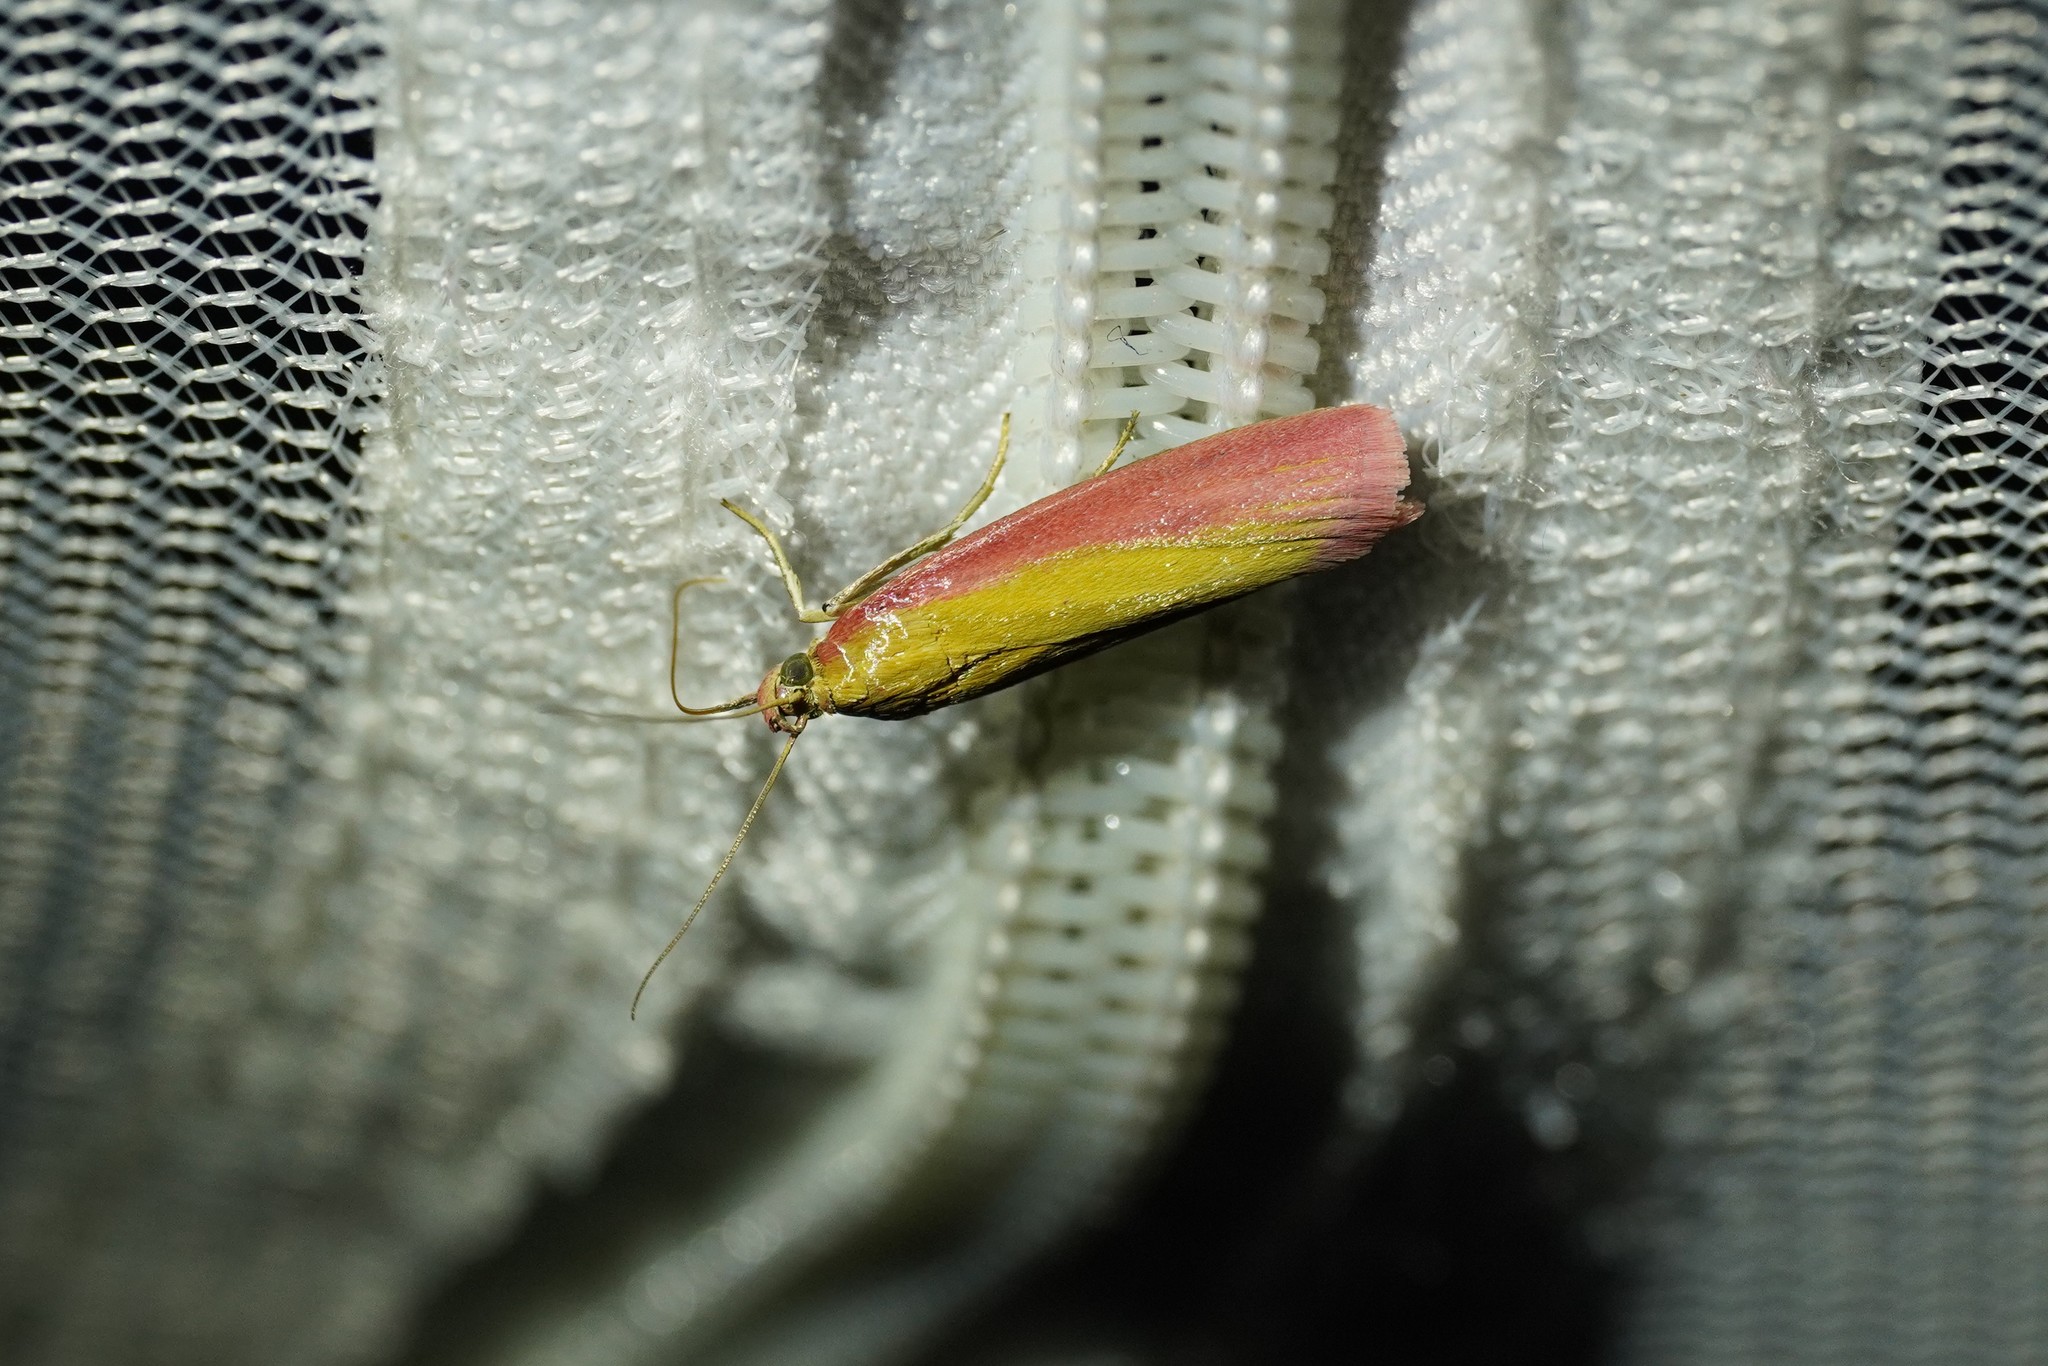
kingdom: Animalia
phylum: Arthropoda
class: Insecta
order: Lepidoptera
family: Pyralidae
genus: Oncocera
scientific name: Oncocera semirubella
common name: Rosy-striped knot-horn
